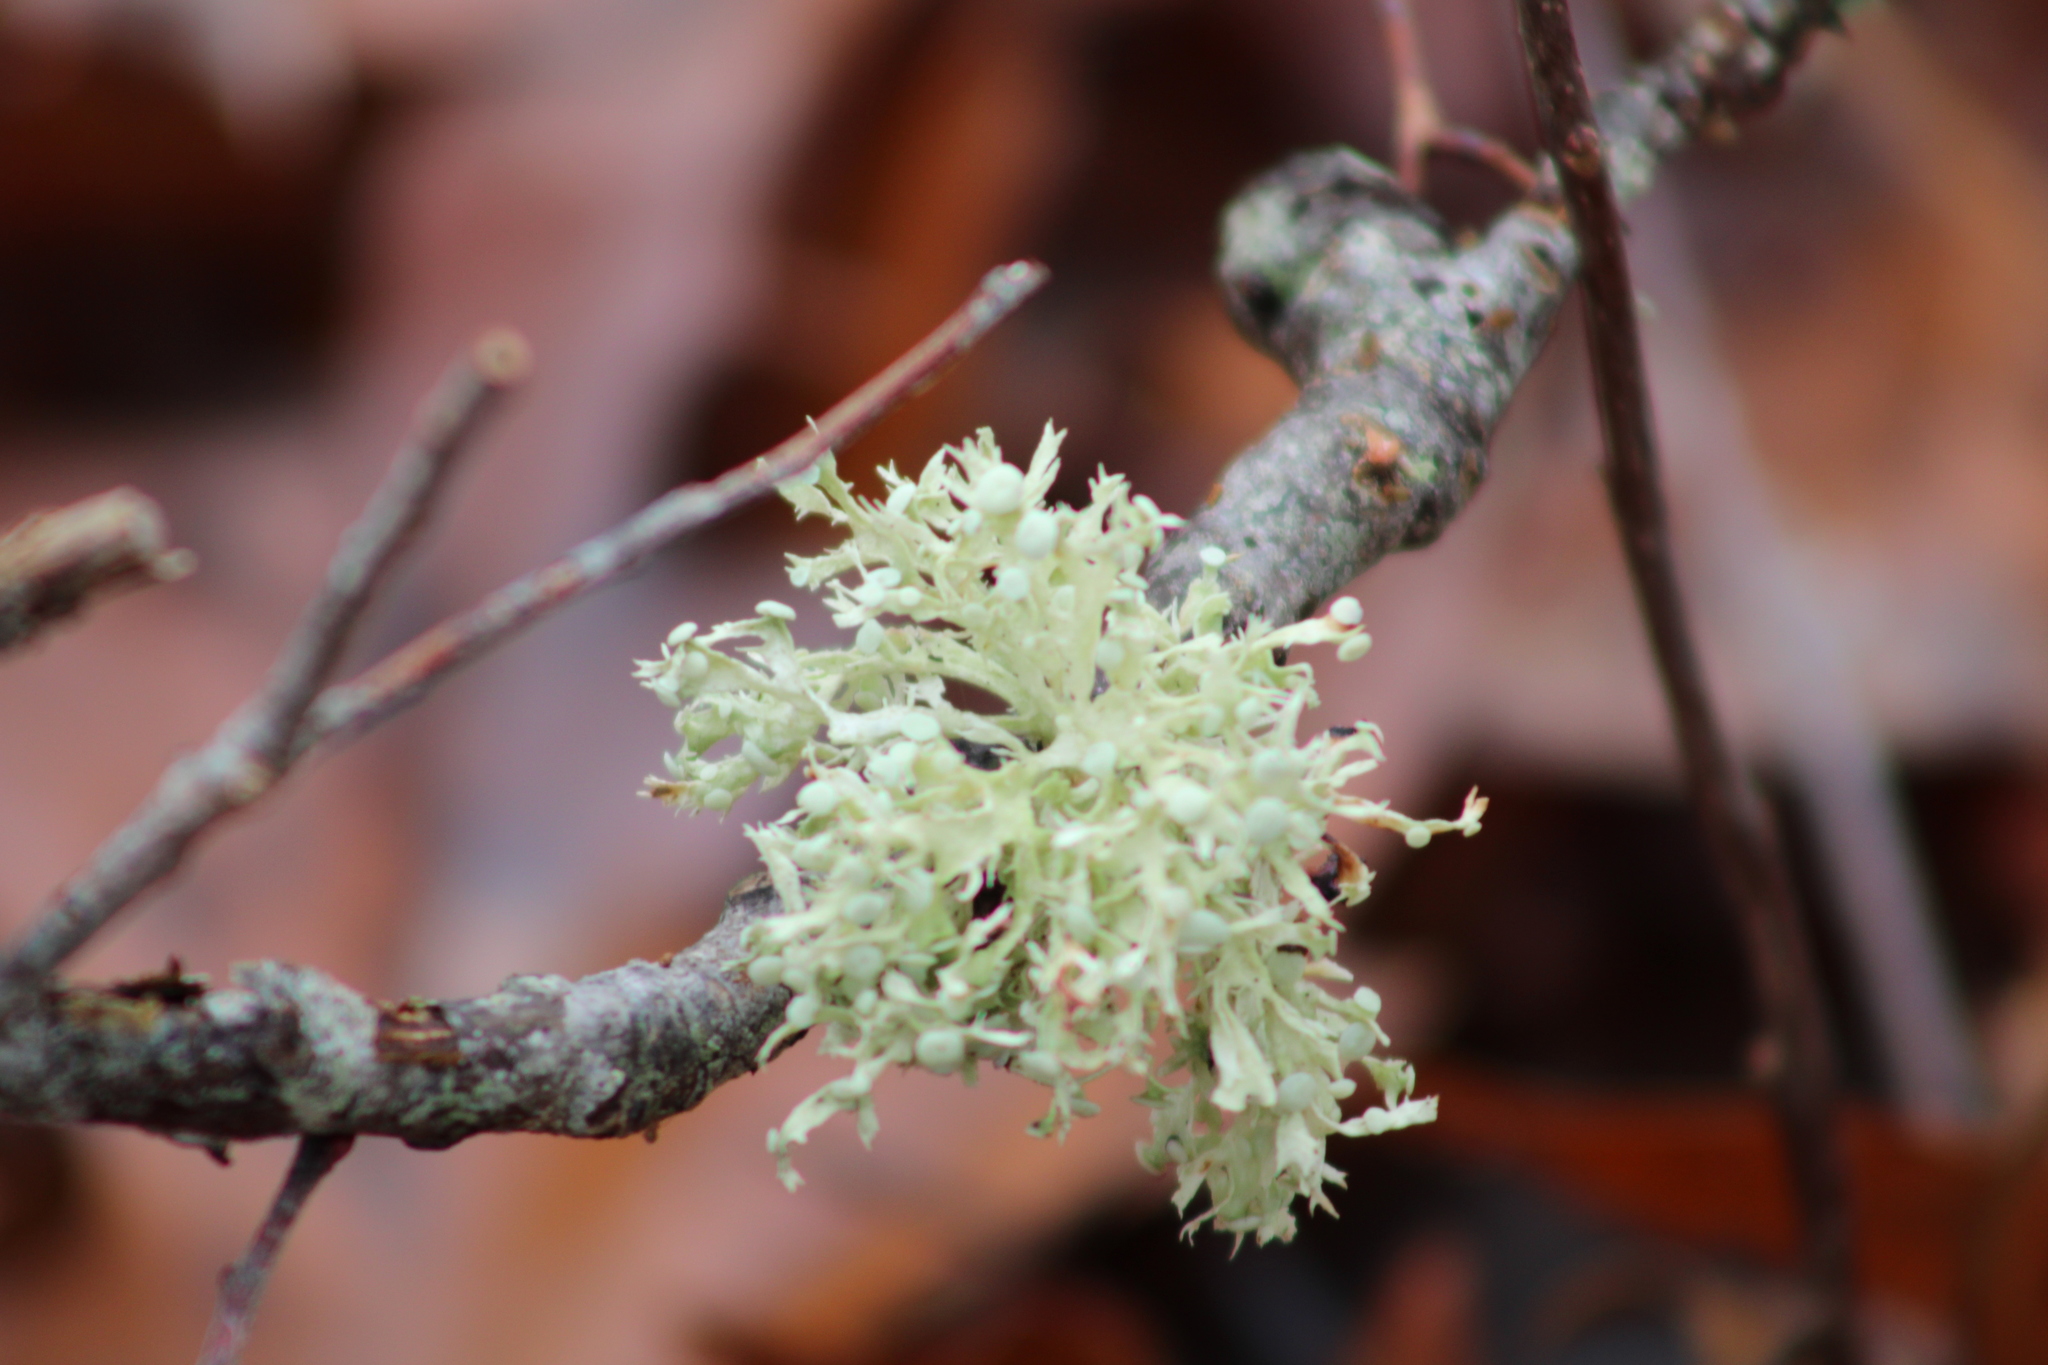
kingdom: Fungi
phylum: Ascomycota
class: Lecanoromycetes
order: Lecanorales
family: Ramalinaceae
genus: Ramalina
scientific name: Ramalina americana
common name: Sinewed bush lichen
